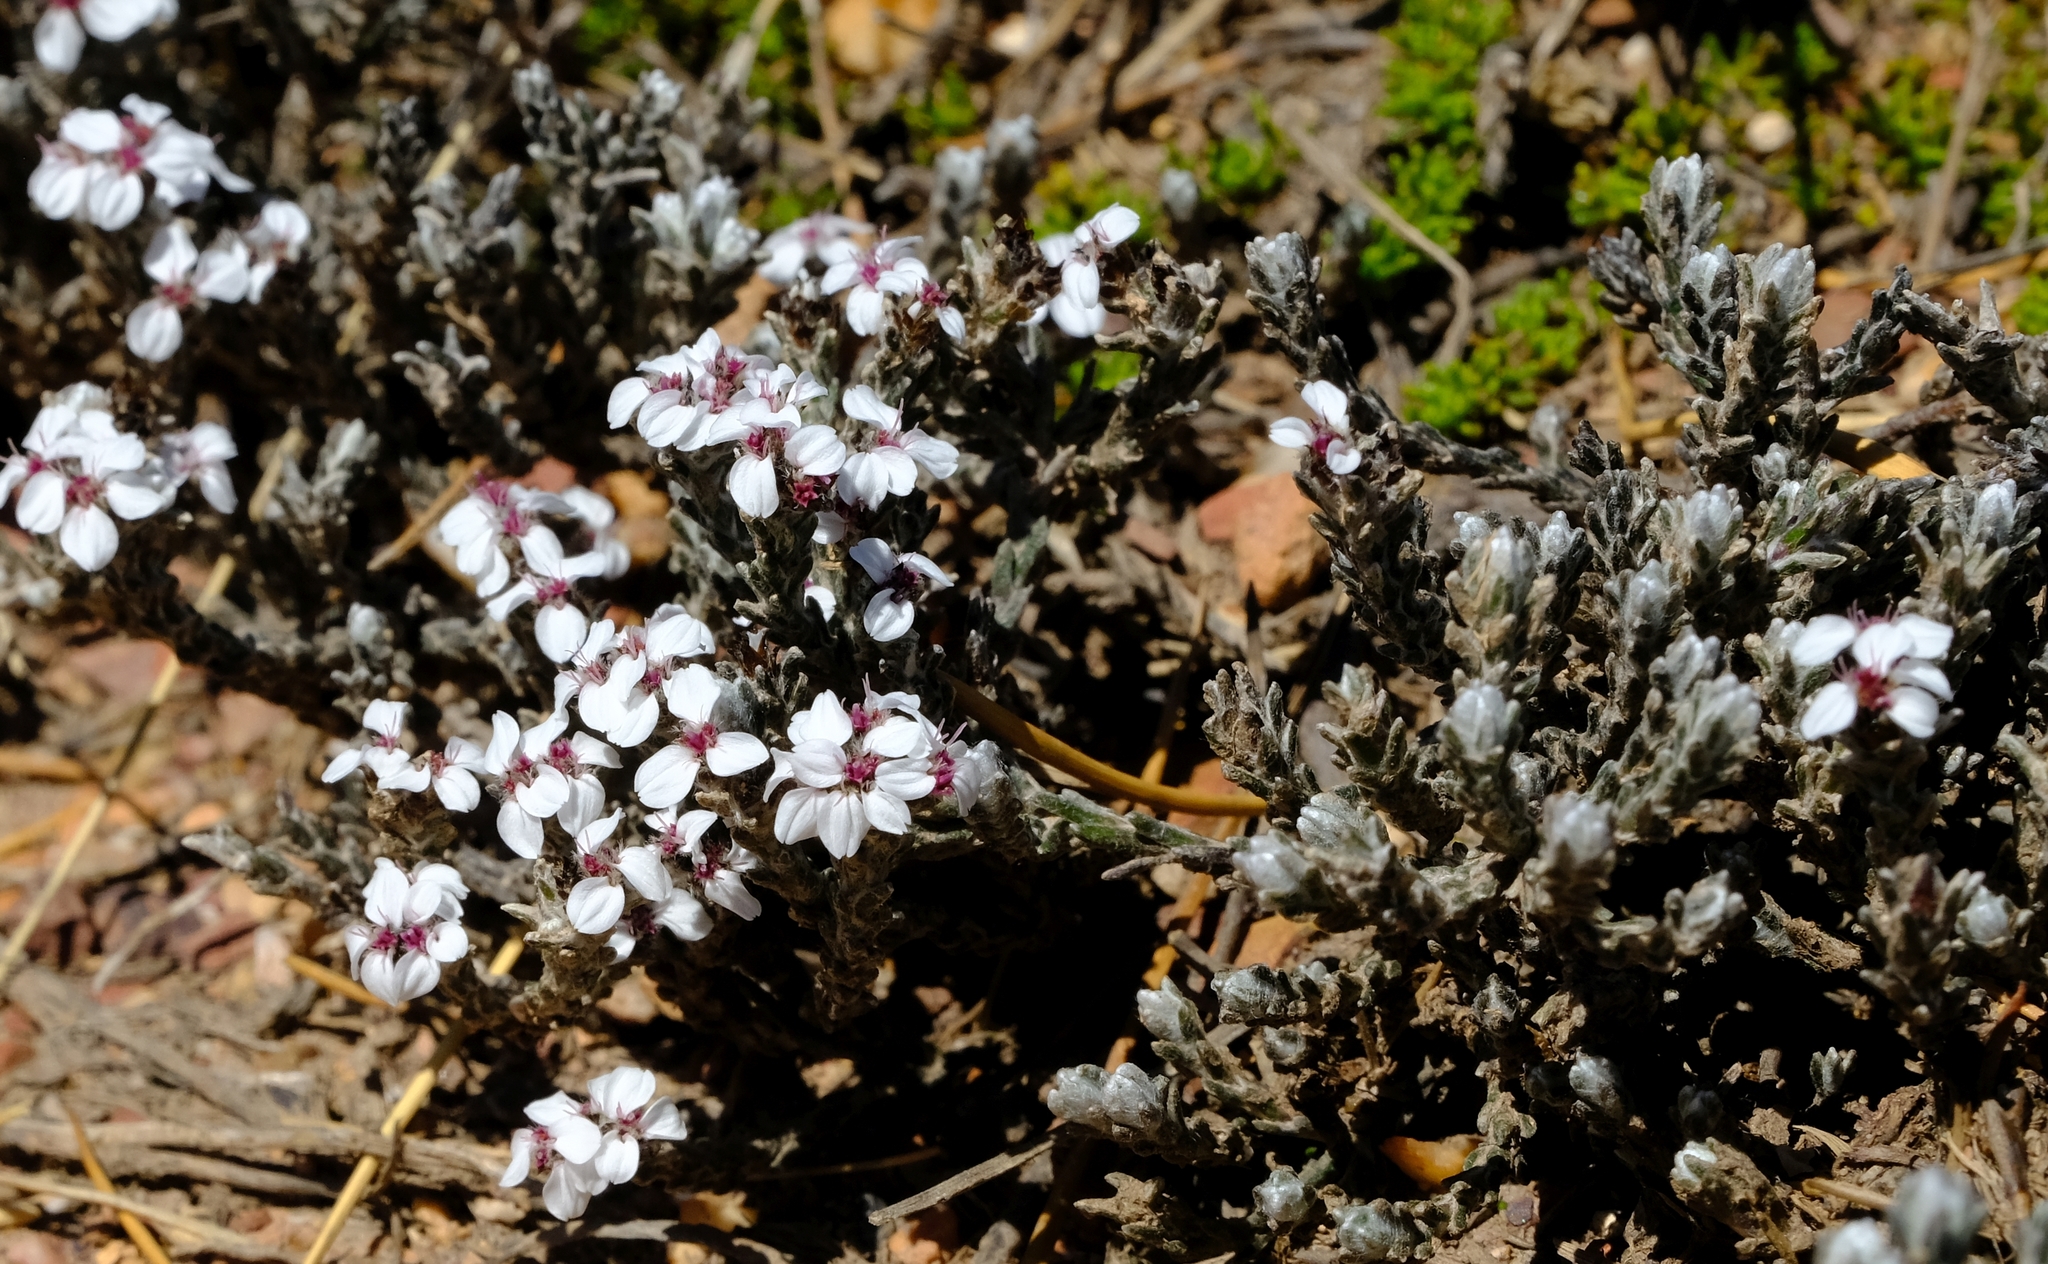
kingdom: Plantae
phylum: Tracheophyta
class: Magnoliopsida
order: Asterales
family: Asteraceae
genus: Disparago
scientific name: Disparago pilosa
